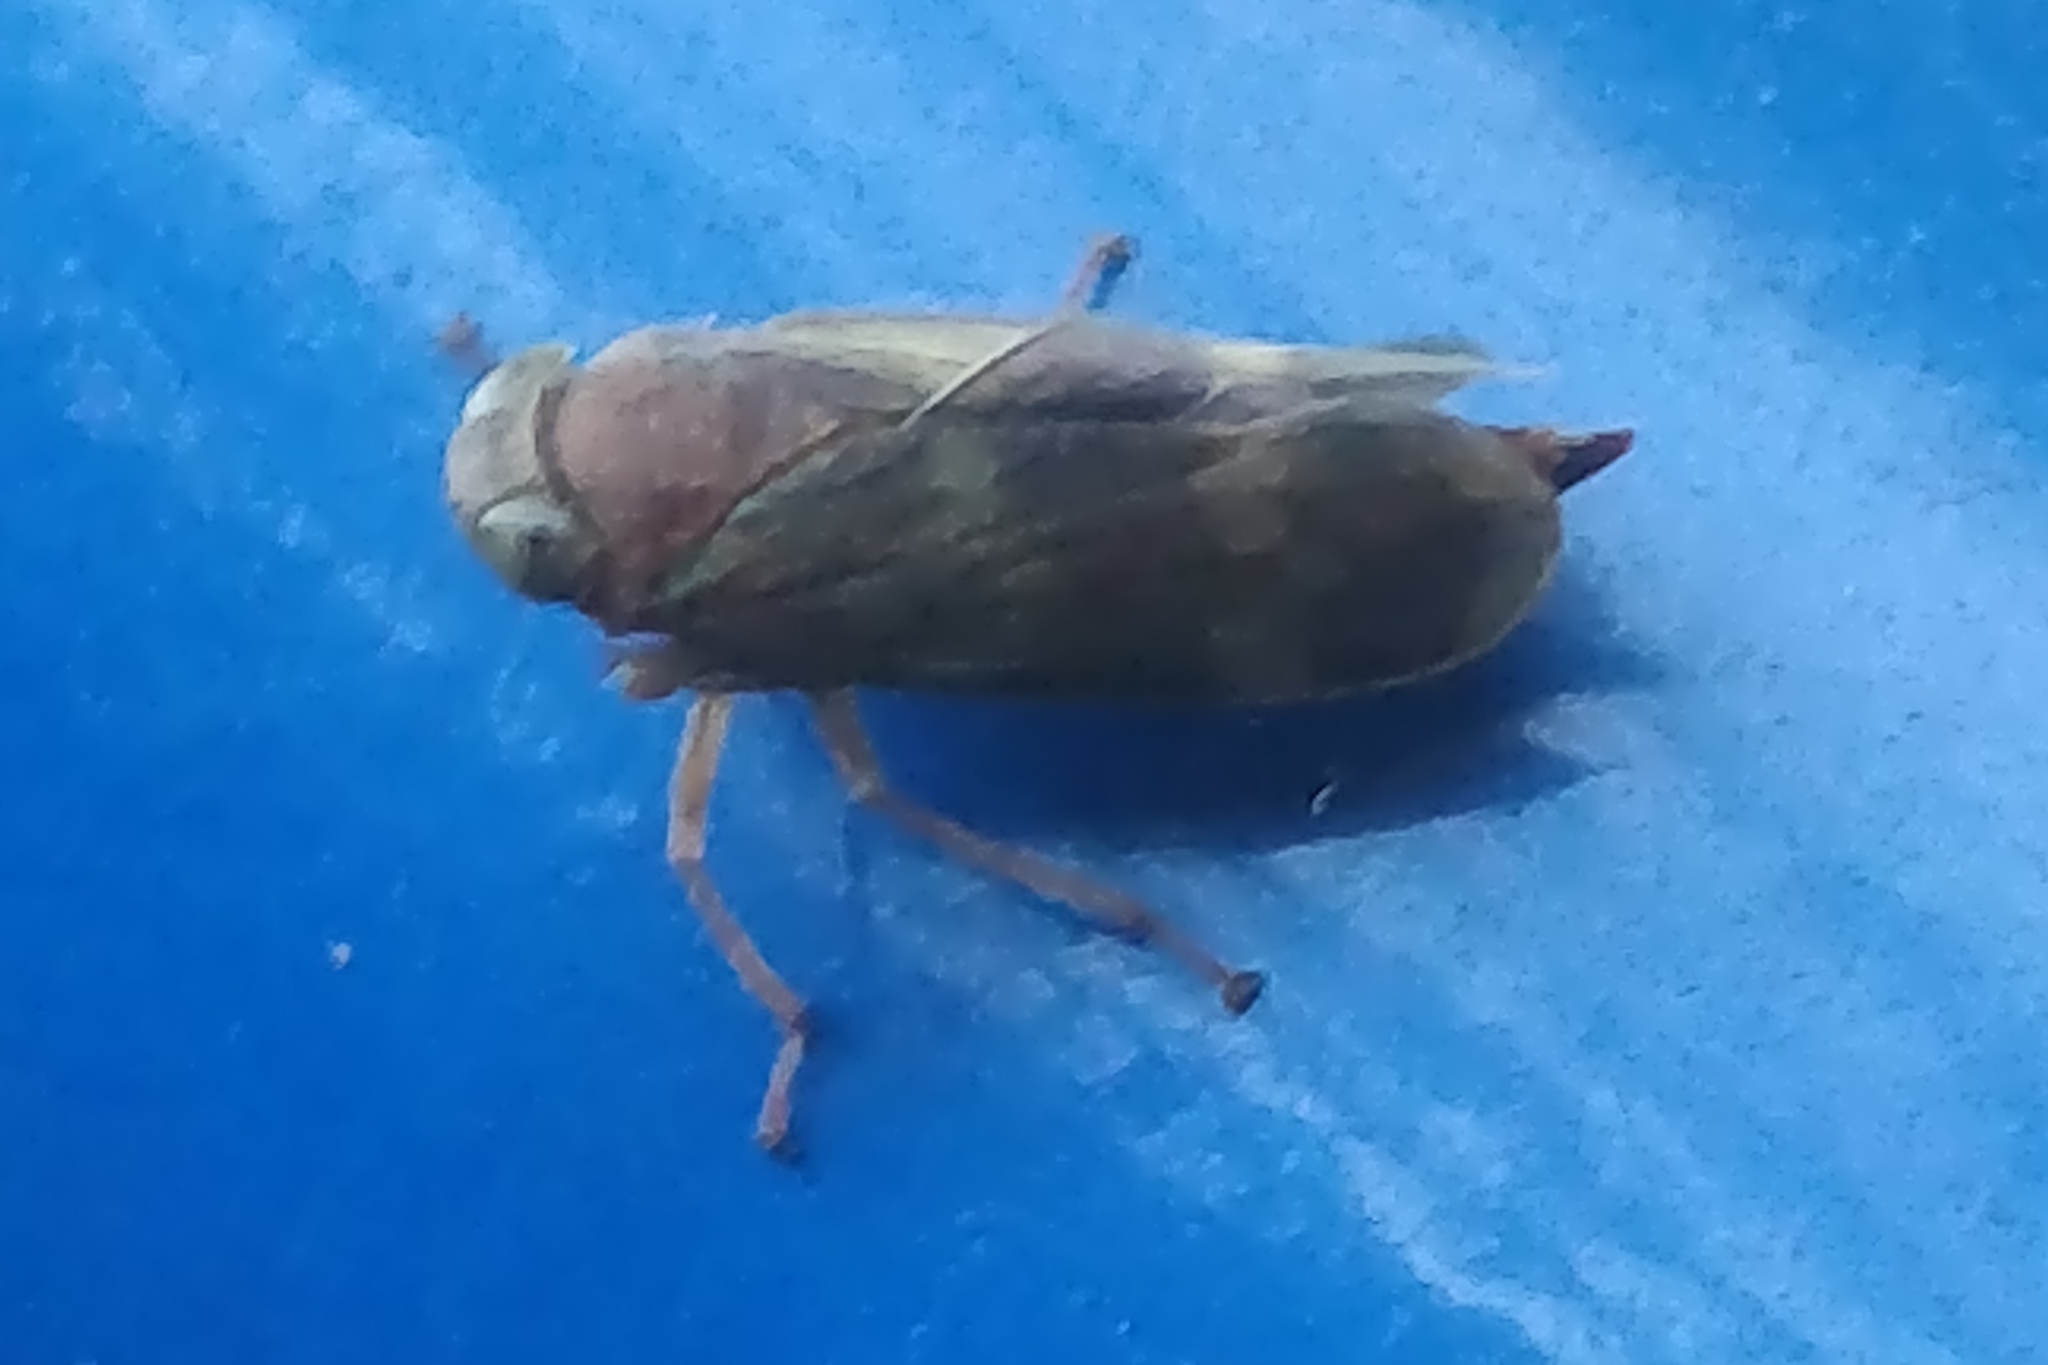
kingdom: Animalia
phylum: Arthropoda
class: Insecta
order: Hemiptera
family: Cicadellidae
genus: Jikradia
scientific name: Jikradia olitoria
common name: Coppery leafhopper
